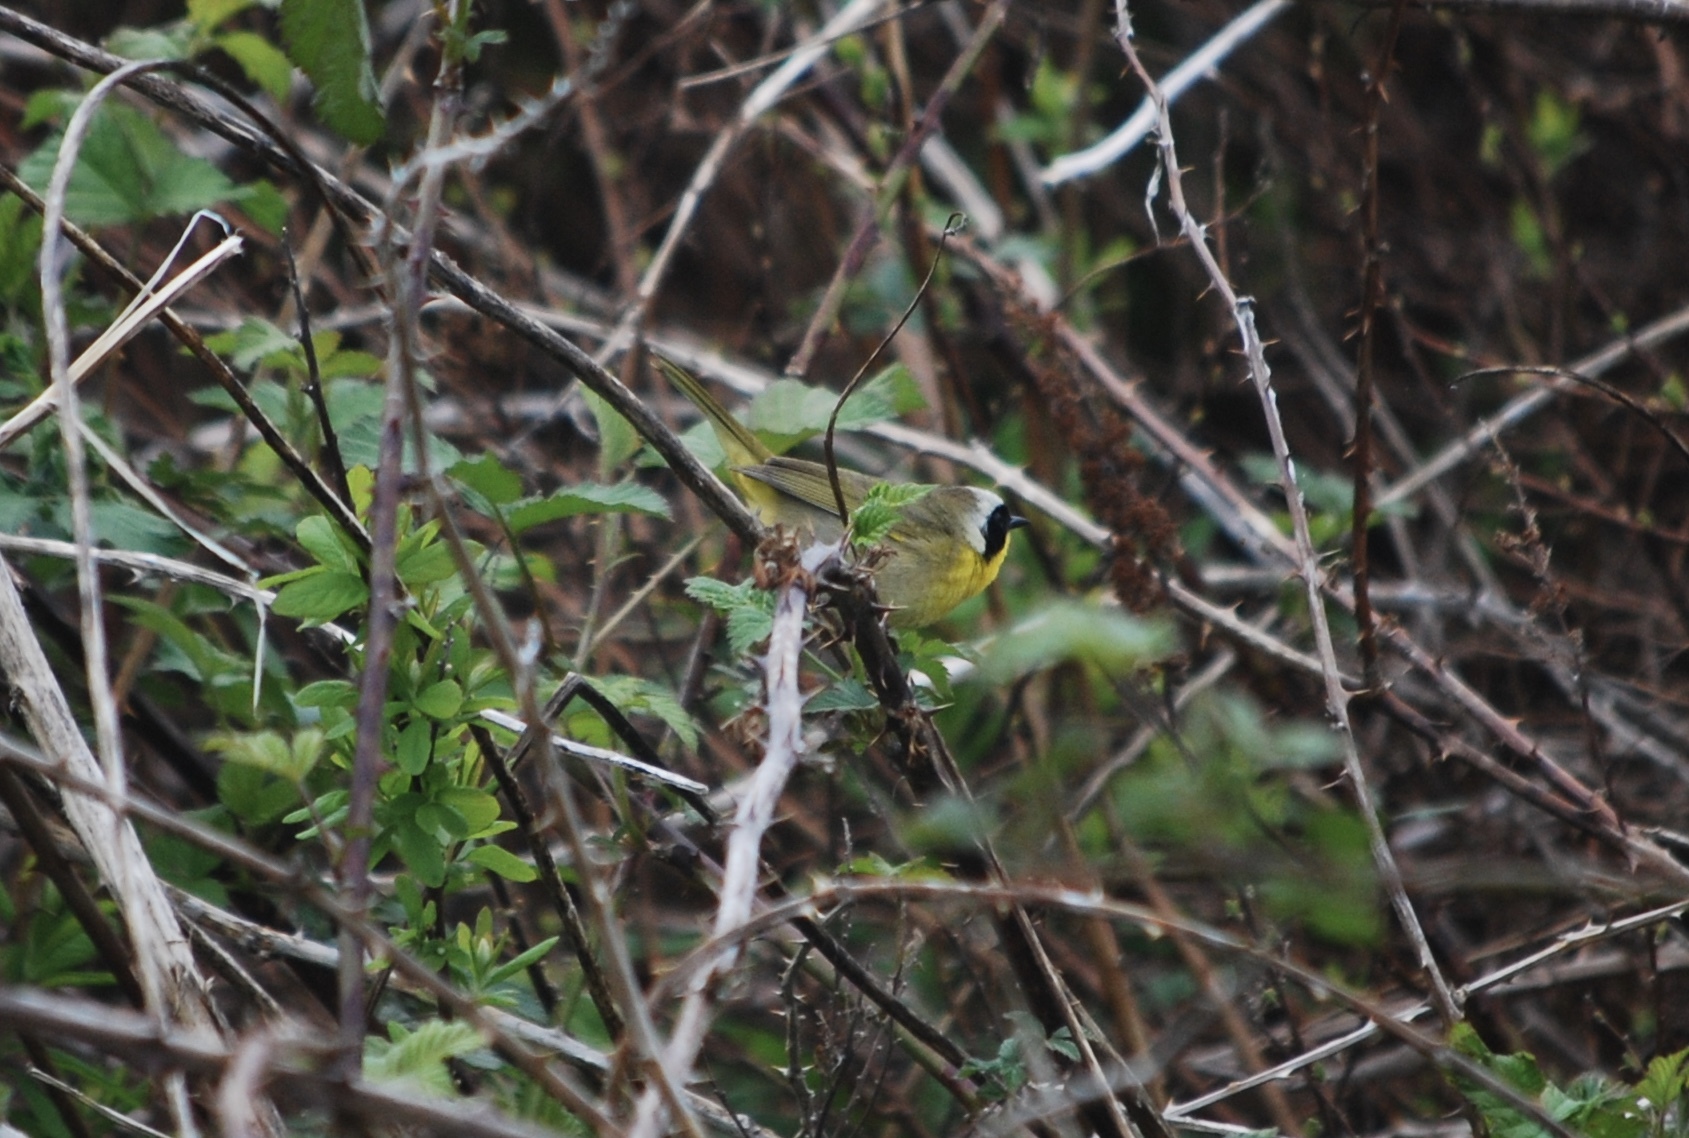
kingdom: Animalia
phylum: Chordata
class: Aves
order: Passeriformes
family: Parulidae
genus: Geothlypis
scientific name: Geothlypis trichas
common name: Common yellowthroat
